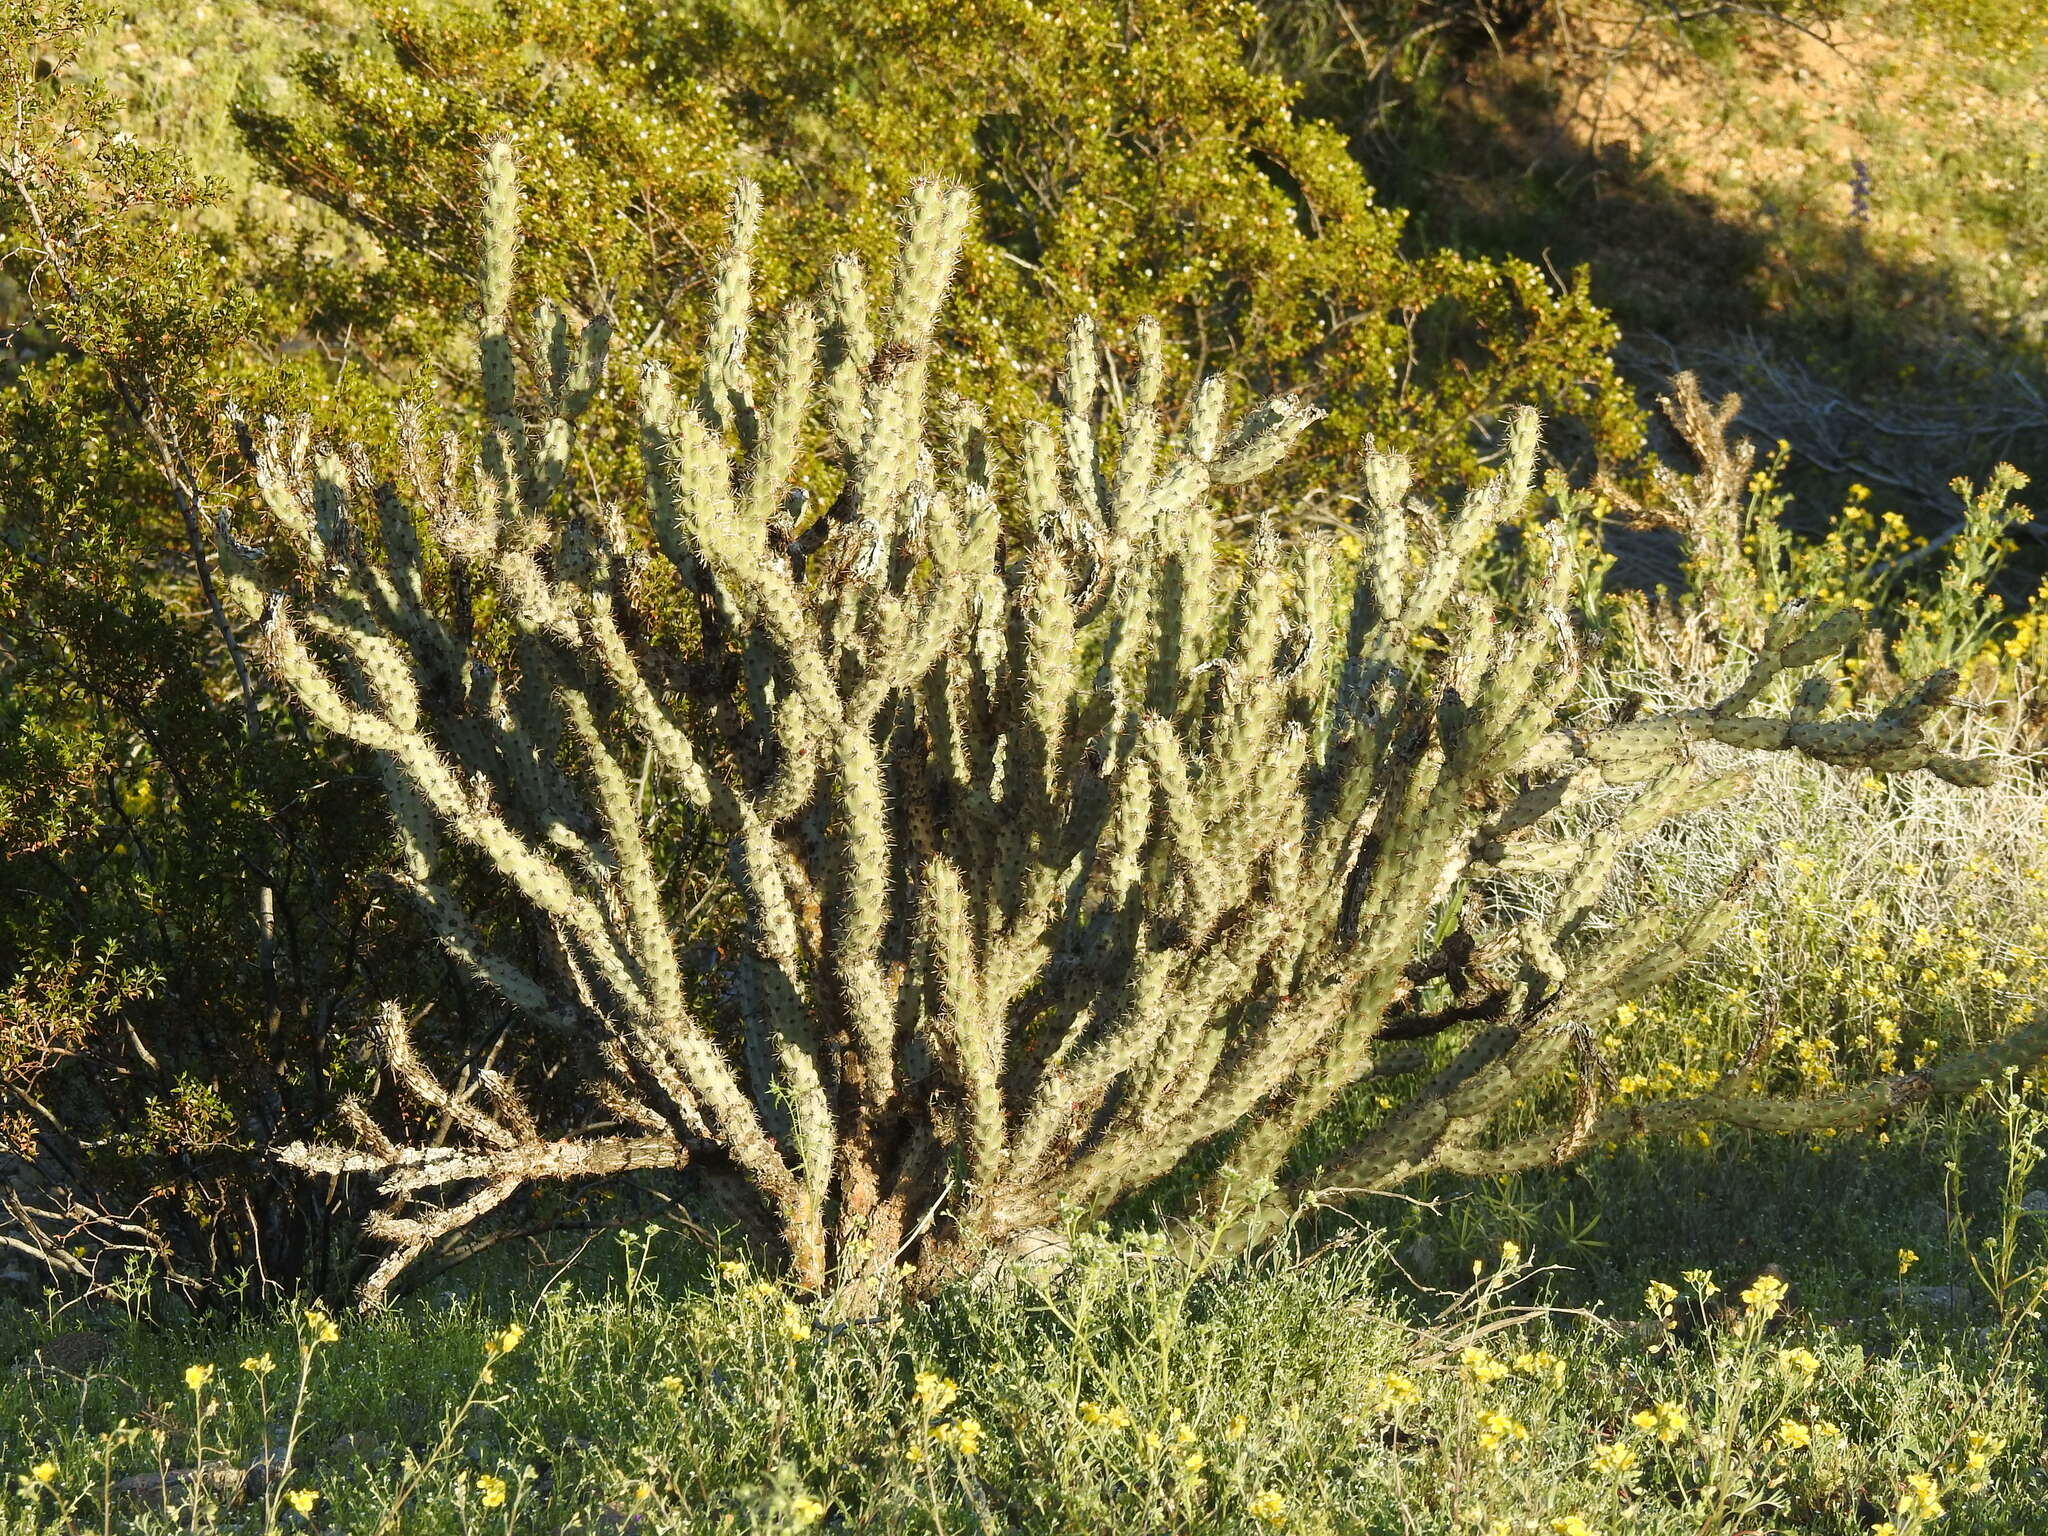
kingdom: Plantae
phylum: Tracheophyta
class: Magnoliopsida
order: Caryophyllales
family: Cactaceae
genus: Cylindropuntia
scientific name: Cylindropuntia acanthocarpa
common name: Buckhorn cholla
